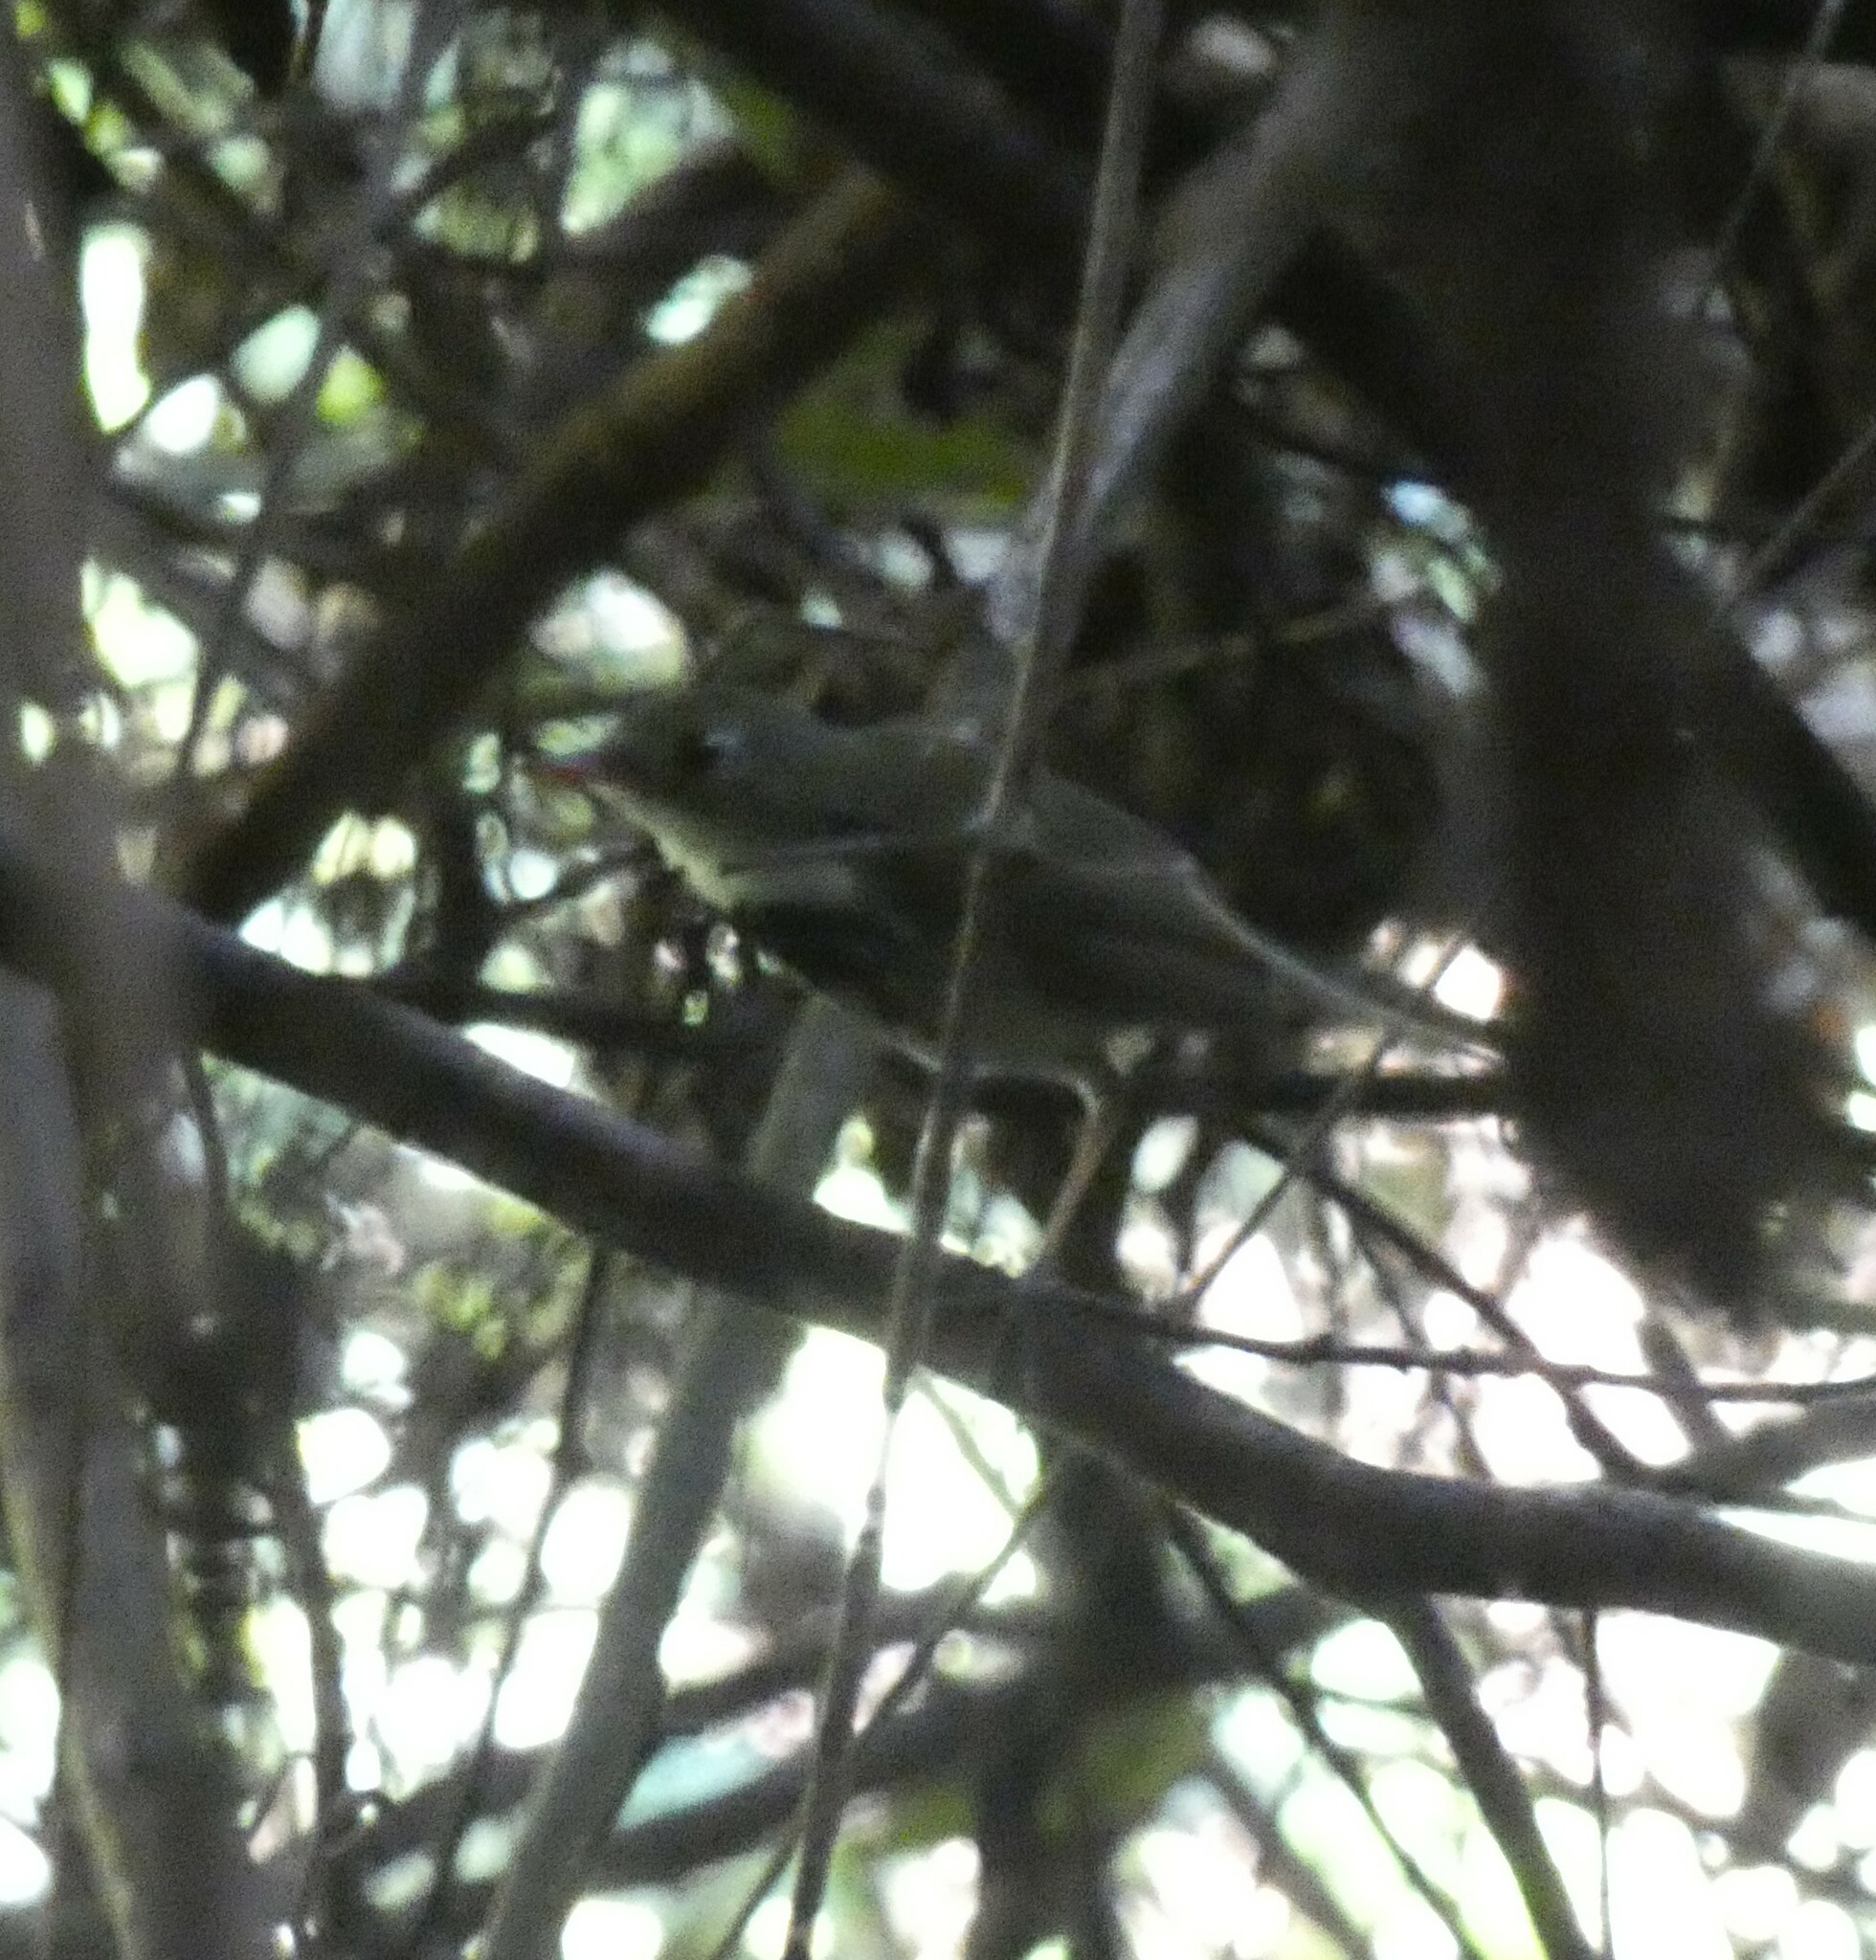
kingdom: Animalia
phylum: Chordata
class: Aves
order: Passeriformes
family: Tyrannidae
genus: Corythopis
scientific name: Corythopis delalandi
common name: Southern antpipit
